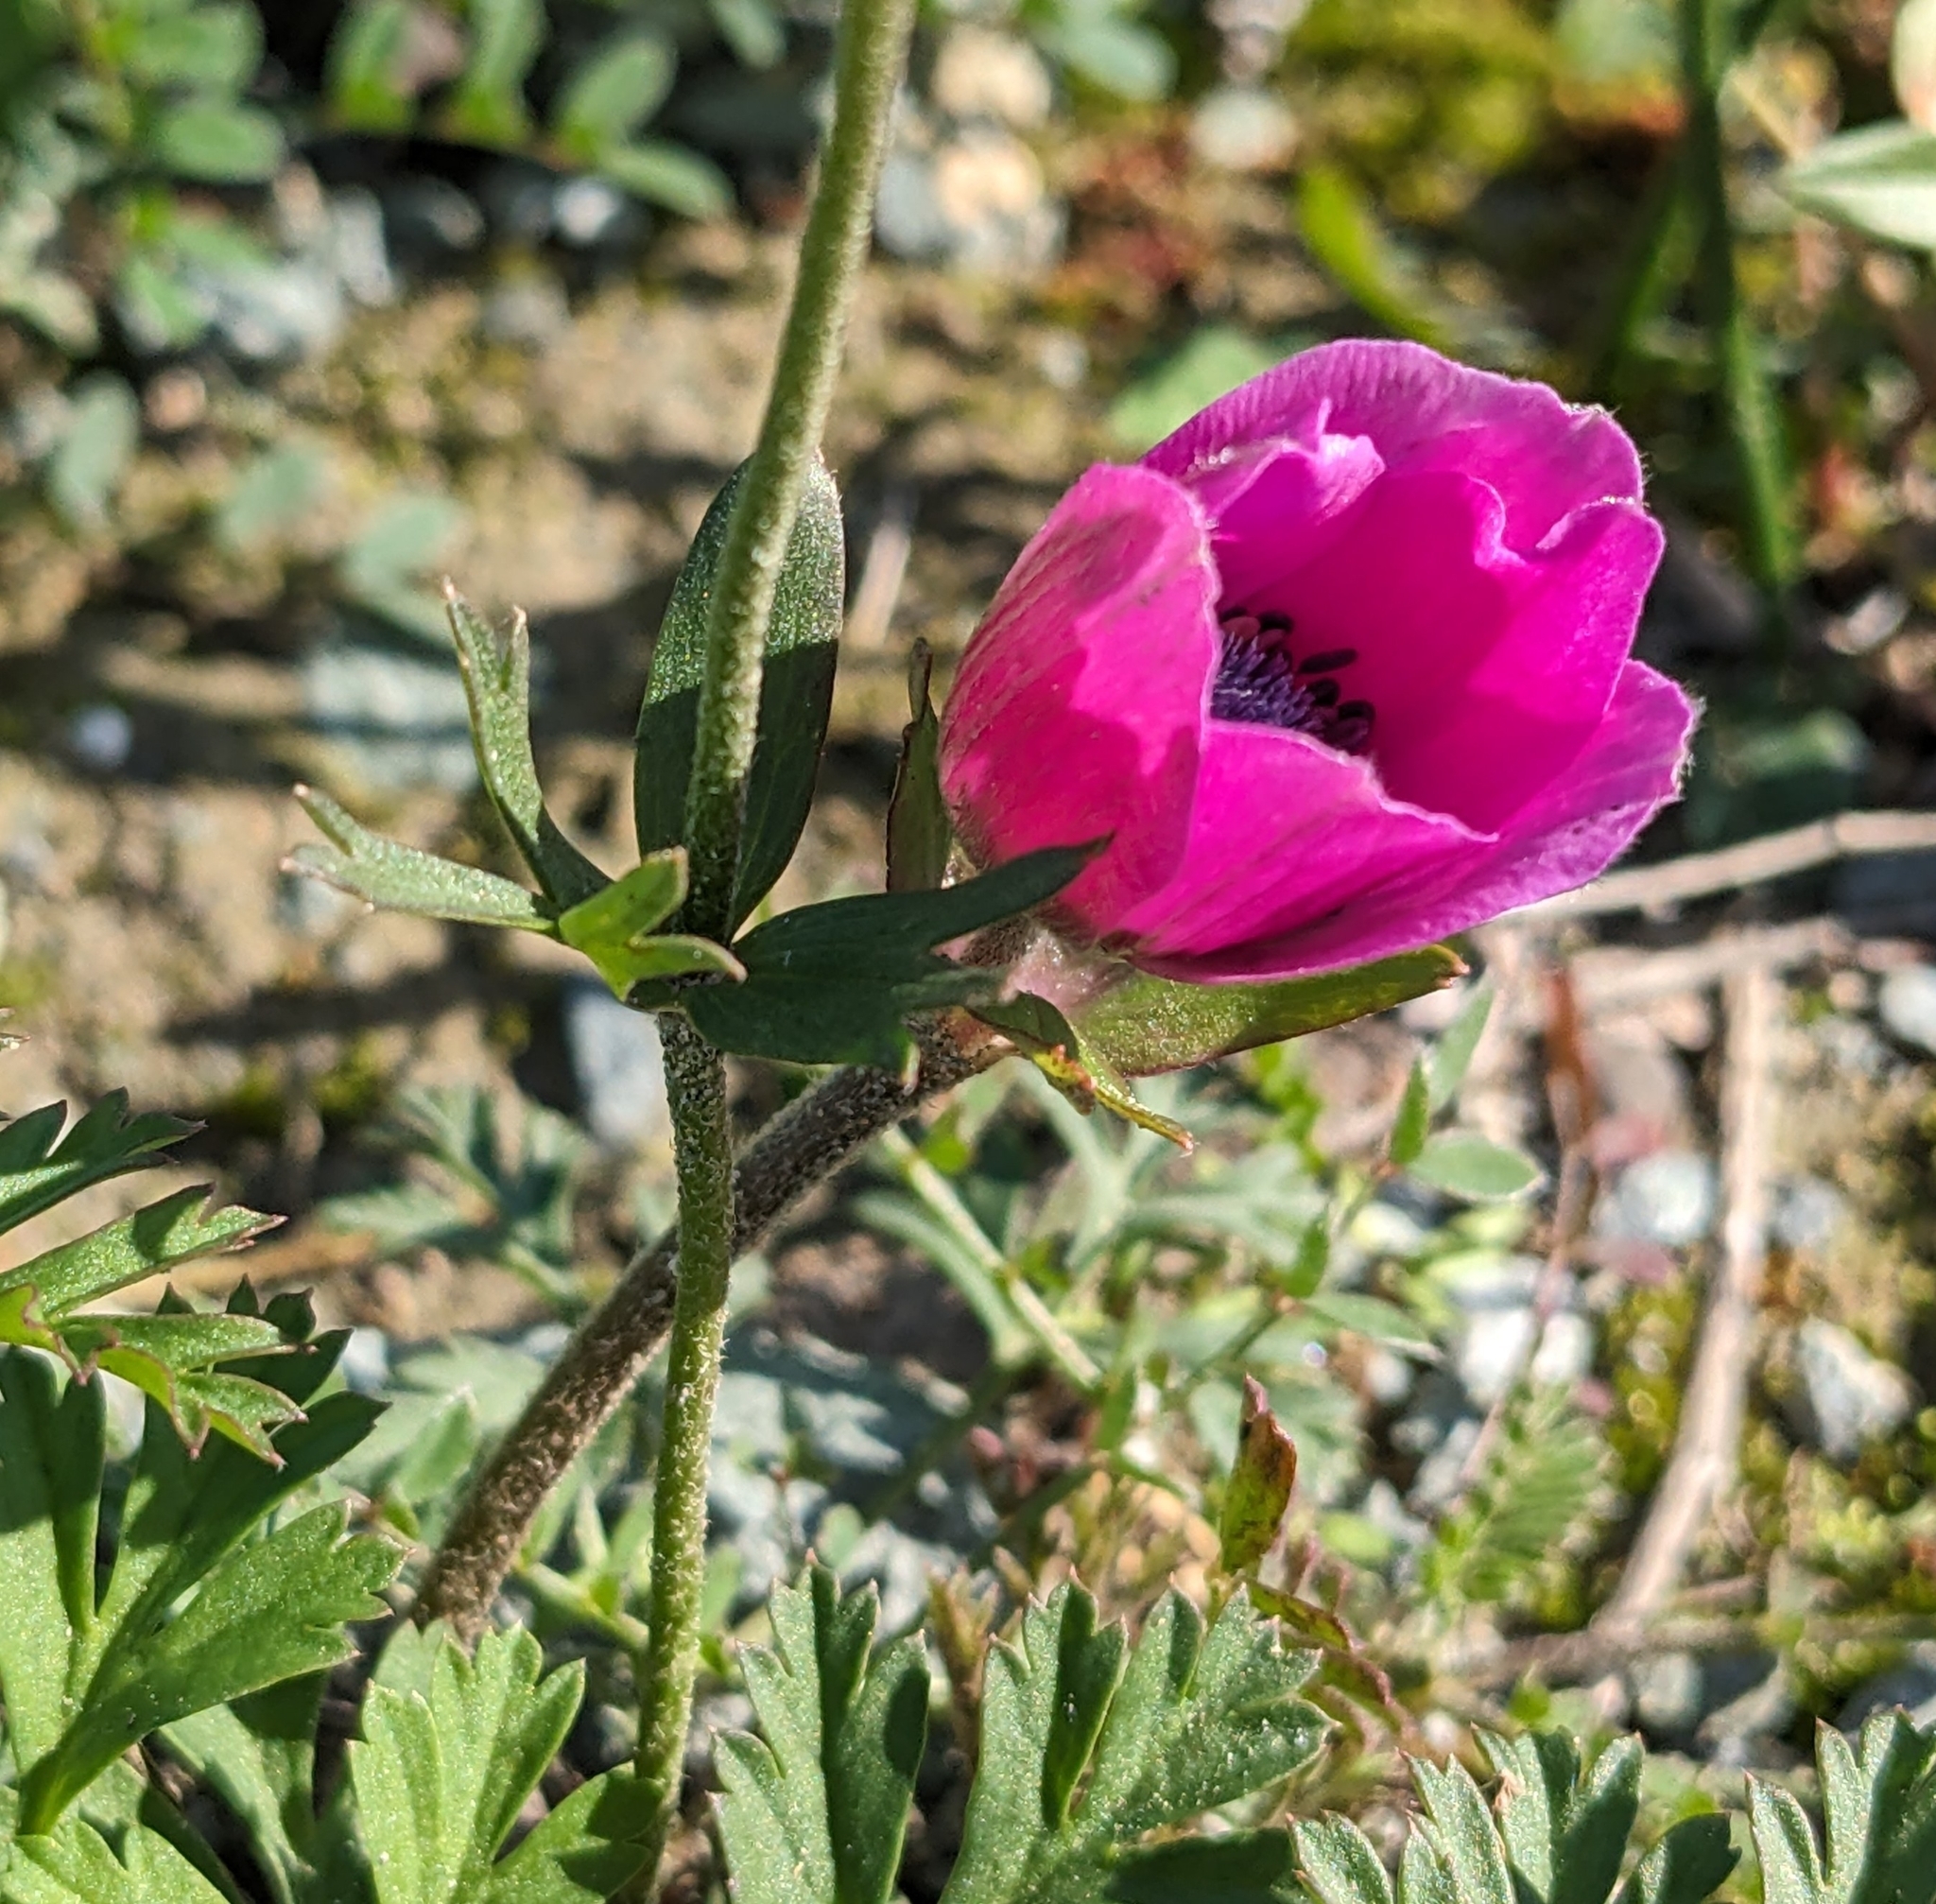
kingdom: Plantae
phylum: Tracheophyta
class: Magnoliopsida
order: Ranunculales
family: Ranunculaceae
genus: Anemone
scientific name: Anemone coronaria
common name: Poppy anemone
